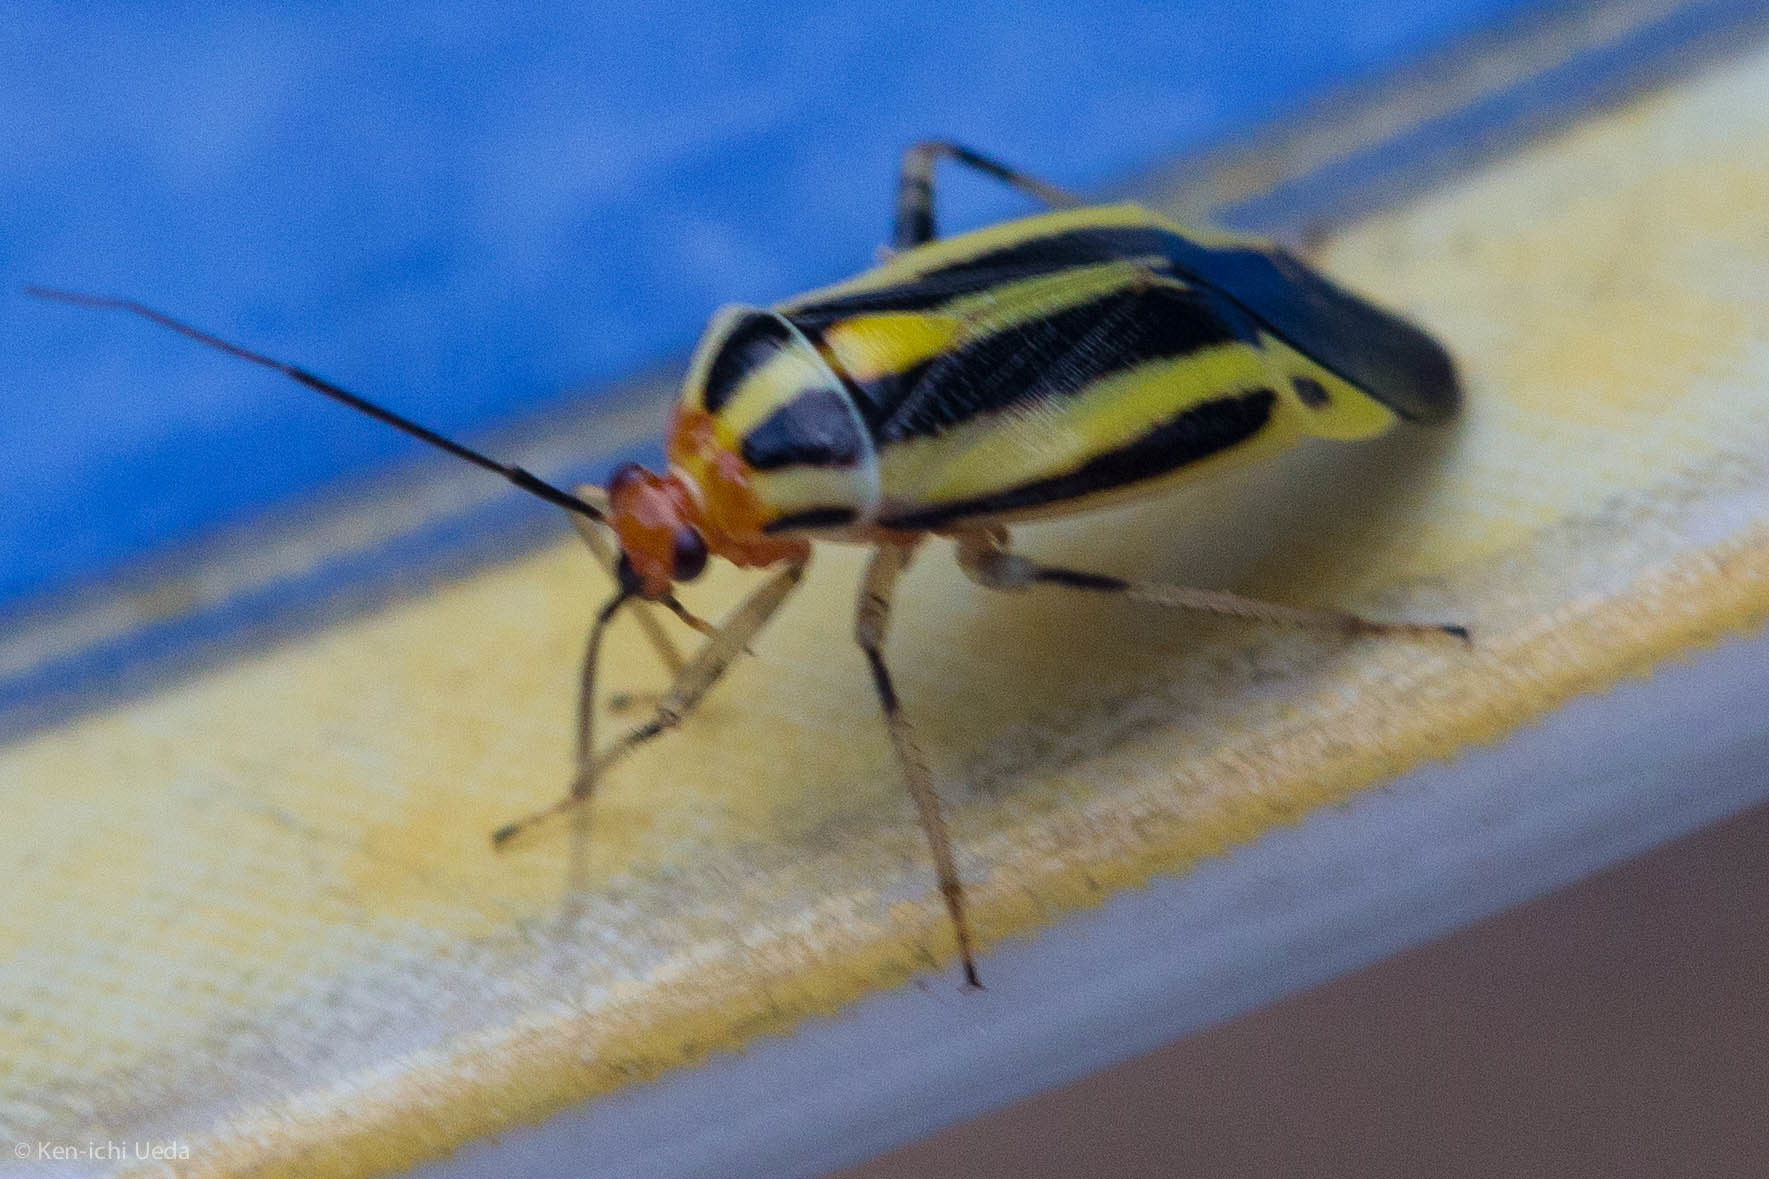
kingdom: Animalia
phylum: Arthropoda
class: Insecta
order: Hemiptera
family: Miridae
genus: Poecilocapsus
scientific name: Poecilocapsus lineatus
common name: Four-lined plant bug
